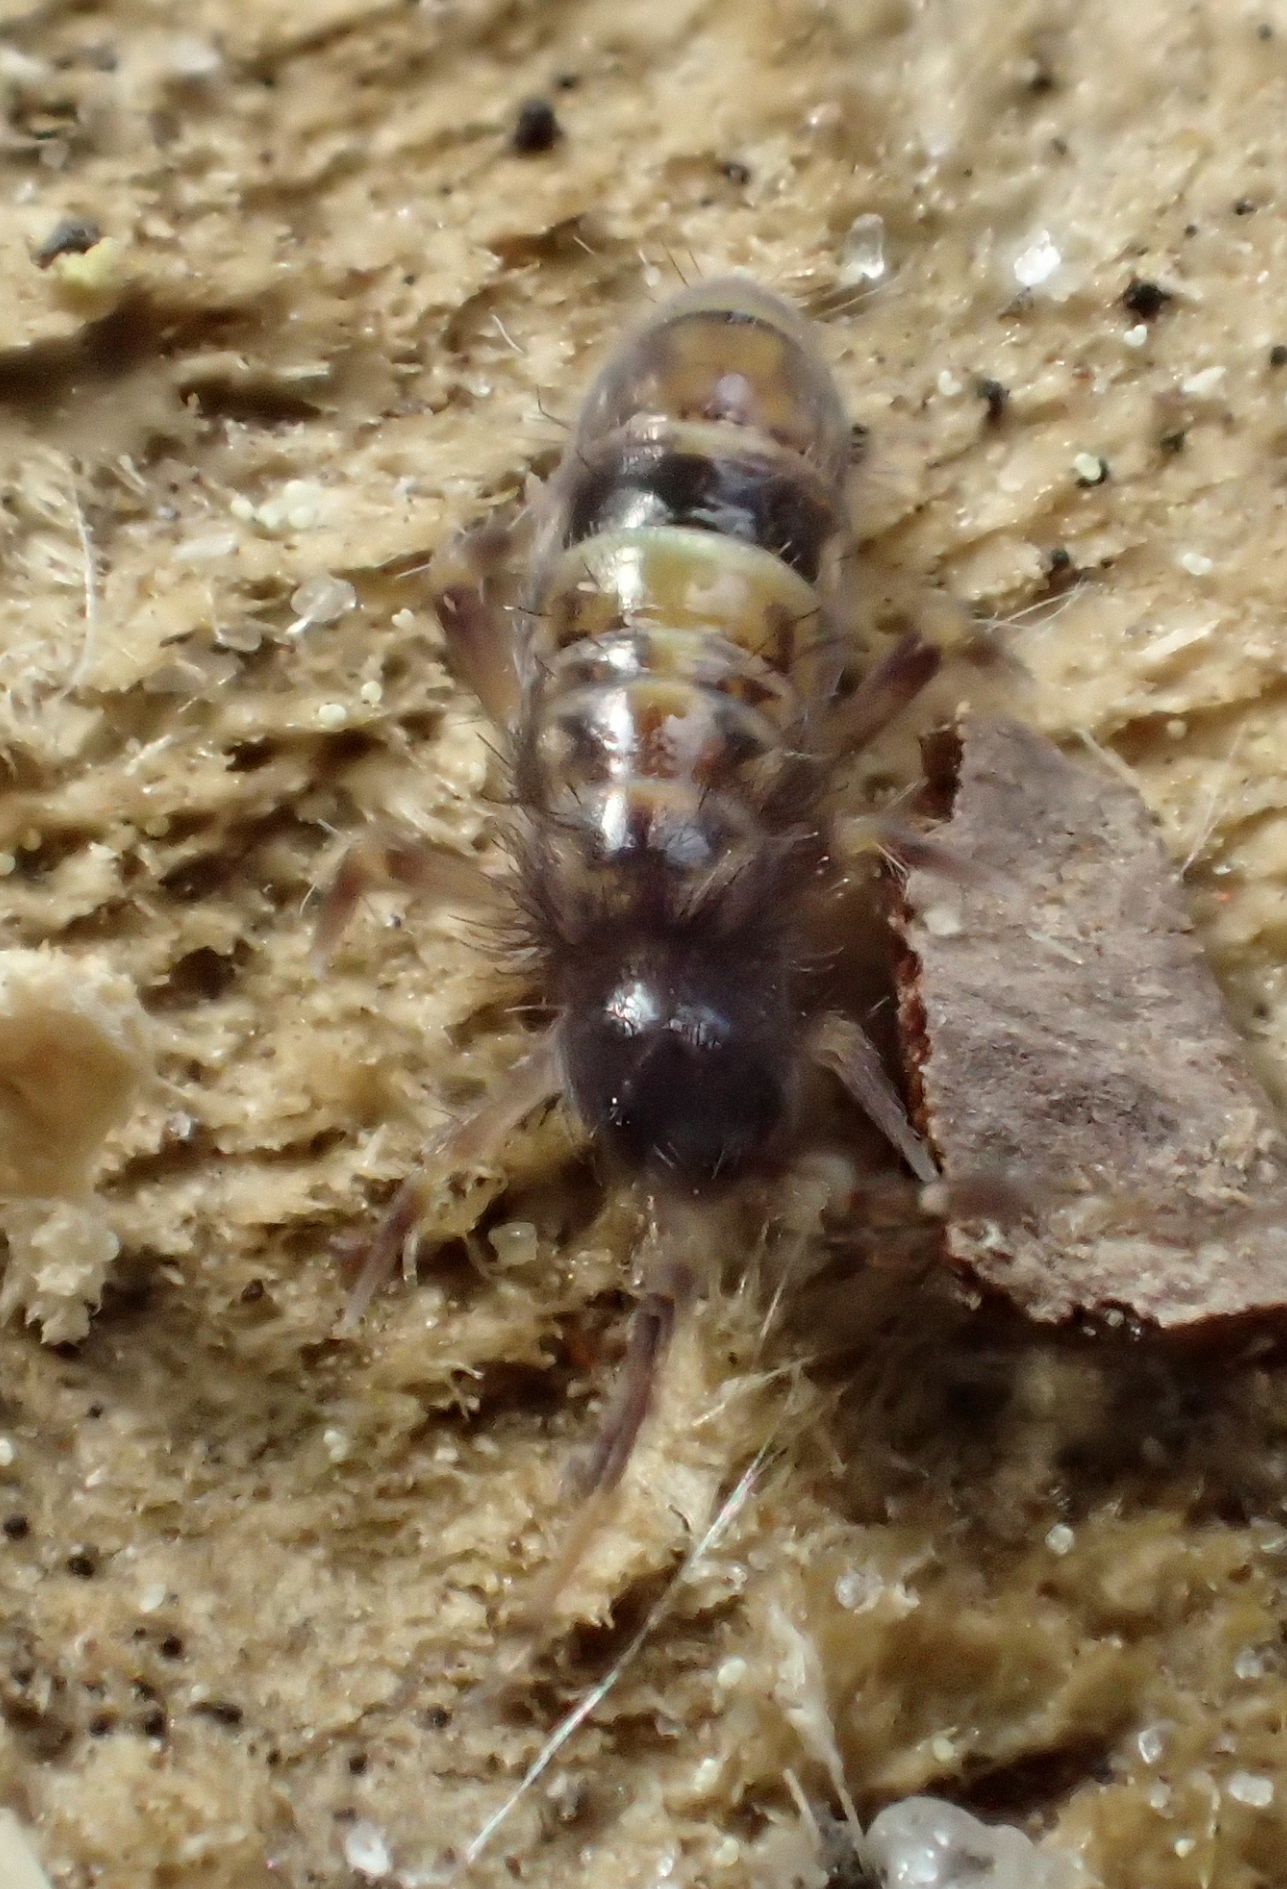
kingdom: Animalia
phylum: Arthropoda
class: Collembola
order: Entomobryomorpha
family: Orchesellidae
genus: Orchesella
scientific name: Orchesella cincta
